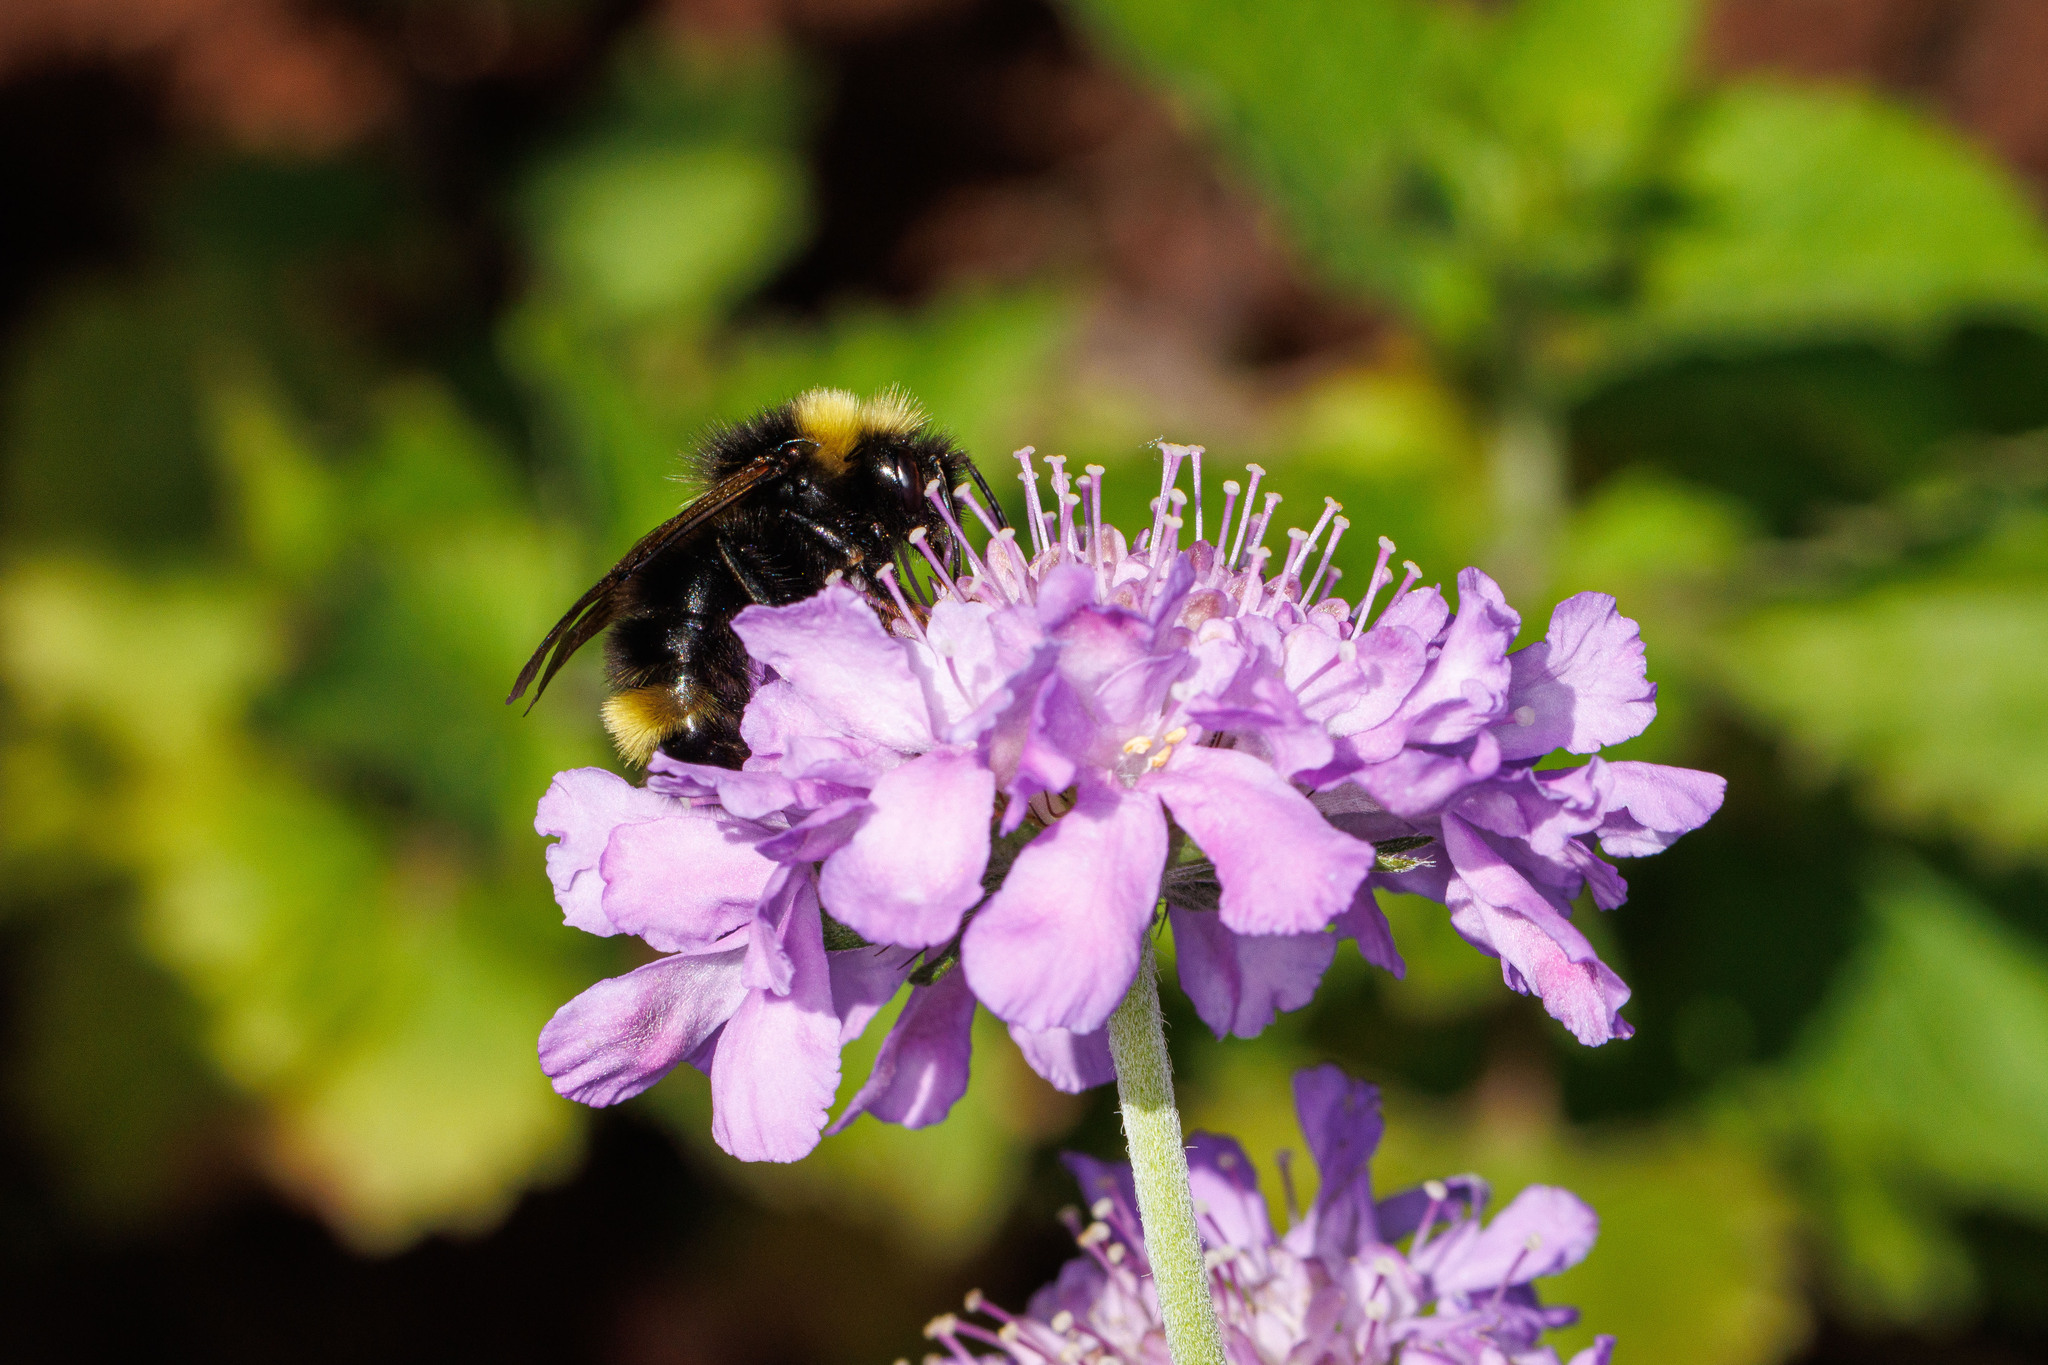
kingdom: Animalia
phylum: Arthropoda
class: Insecta
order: Hymenoptera
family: Apidae
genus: Bombus
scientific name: Bombus flavidus
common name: Fernald cuckoo bumble bee
